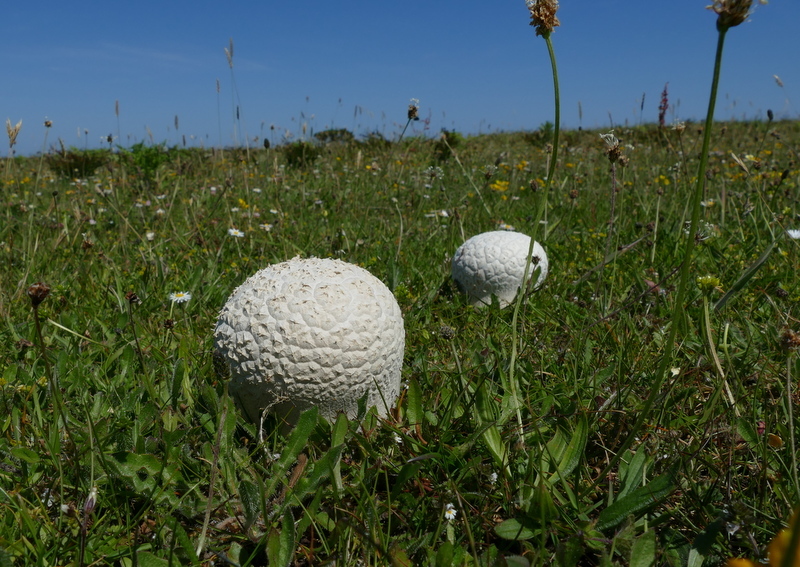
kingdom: Fungi
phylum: Basidiomycota
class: Agaricomycetes
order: Agaricales
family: Lycoperdaceae
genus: Bovistella
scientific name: Bovistella utriformis
